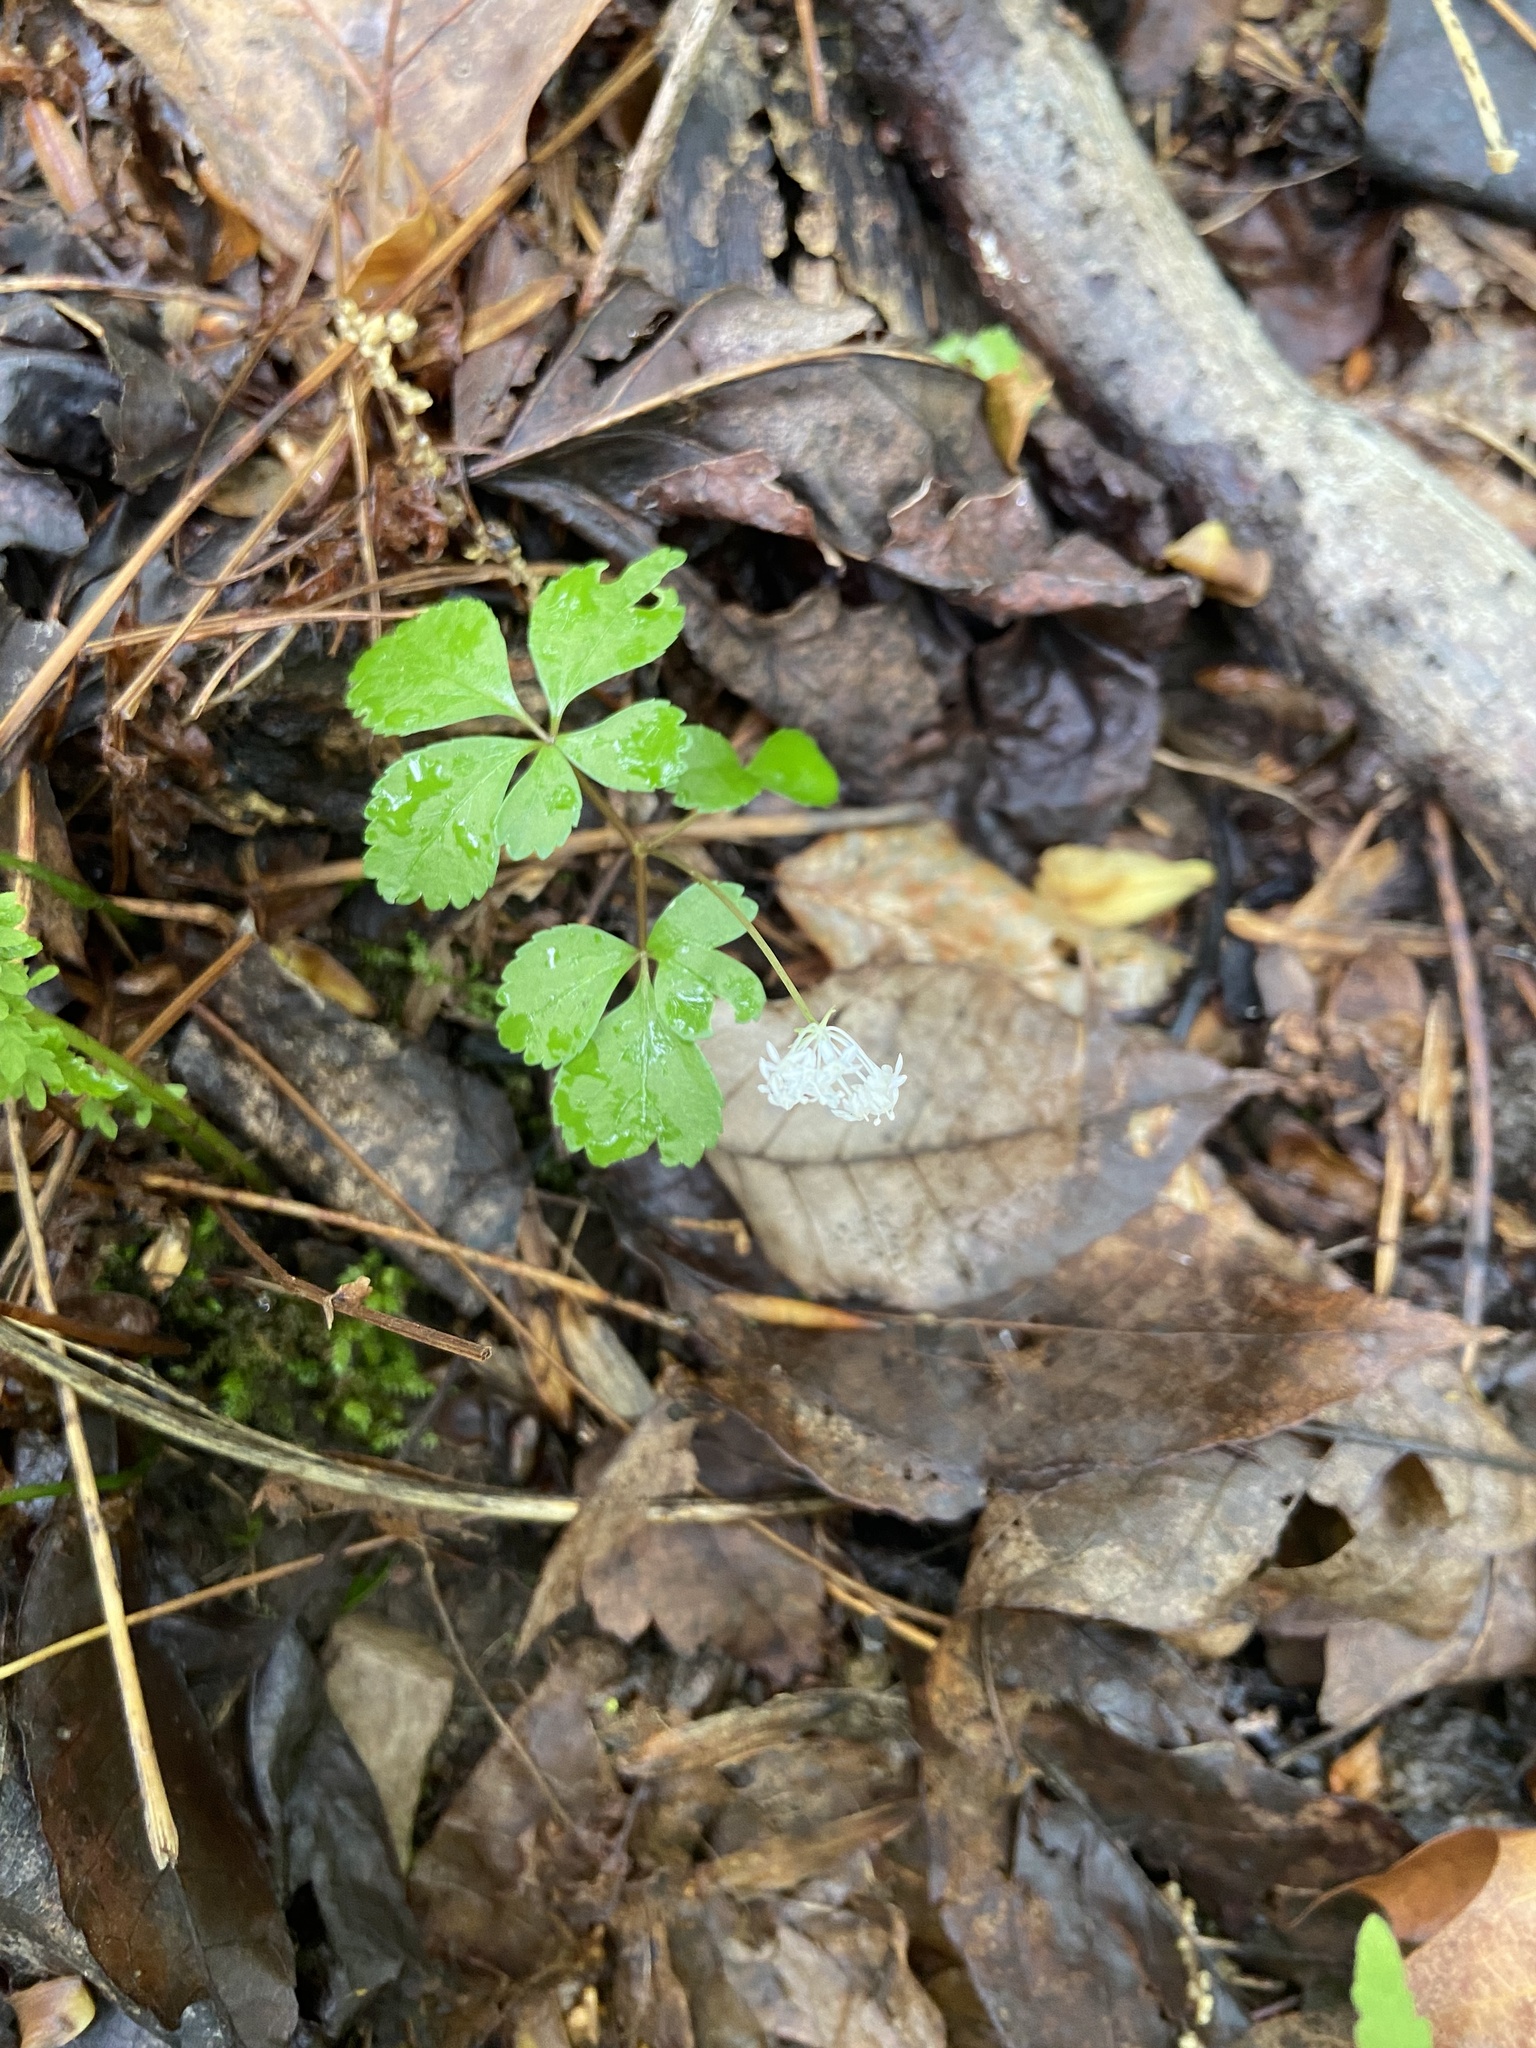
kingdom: Plantae
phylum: Tracheophyta
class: Magnoliopsida
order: Apiales
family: Araliaceae
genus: Panax
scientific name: Panax trifolius
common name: Dwarf ginseng
